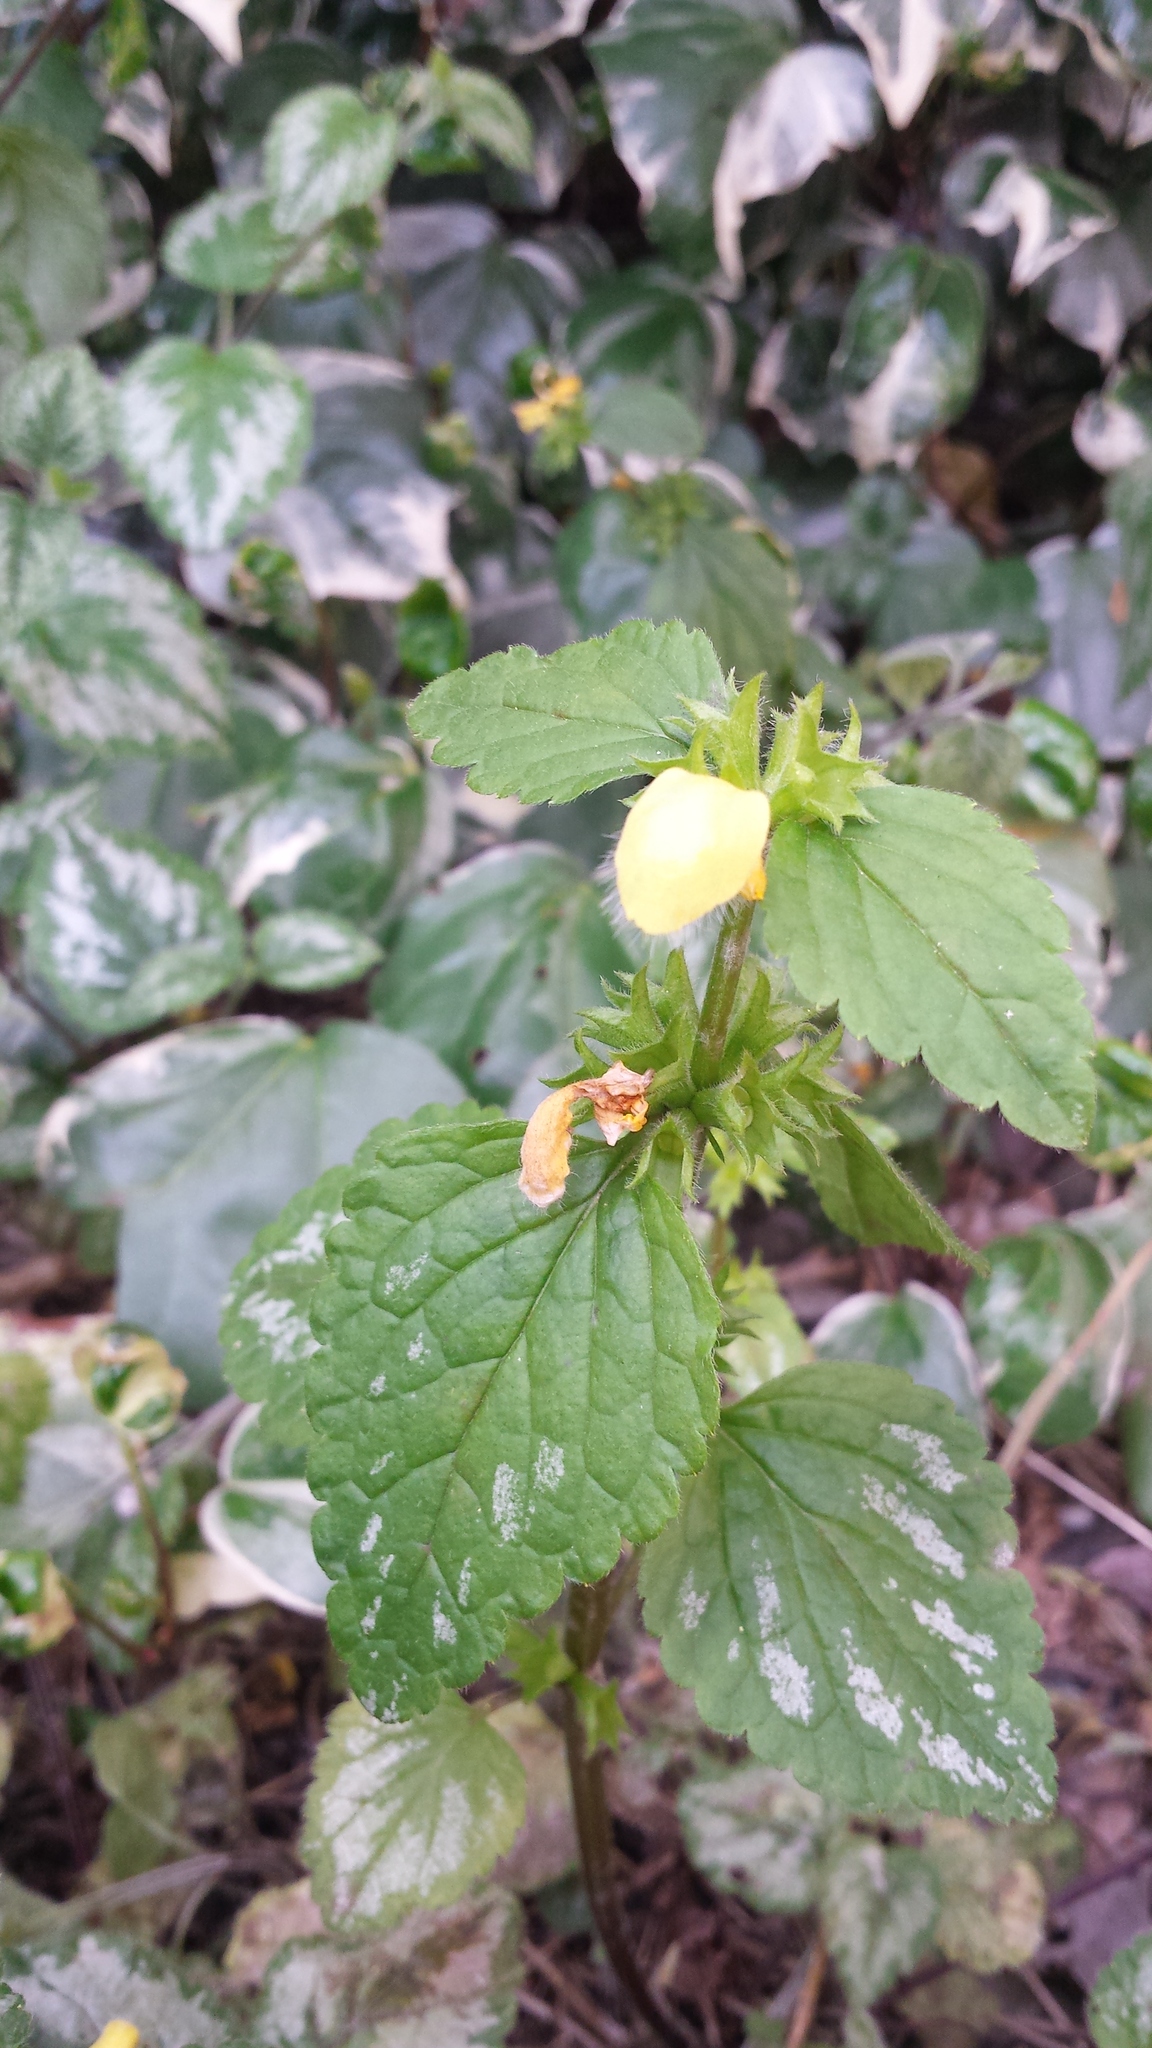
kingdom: Plantae
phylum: Tracheophyta
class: Magnoliopsida
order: Lamiales
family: Lamiaceae
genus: Lamium
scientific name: Lamium galeobdolon
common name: Yellow archangel
